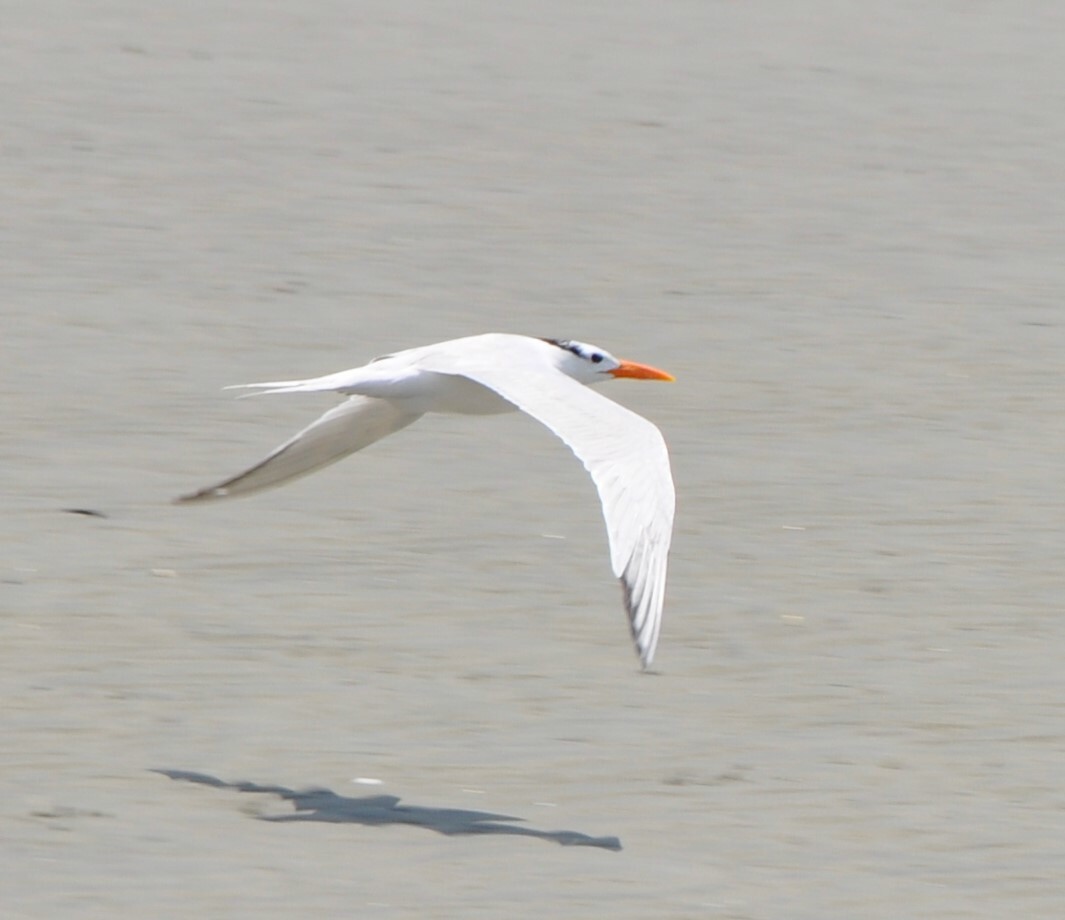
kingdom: Animalia
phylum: Chordata
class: Aves
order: Charadriiformes
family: Laridae
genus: Thalasseus
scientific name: Thalasseus maximus
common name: Royal tern
